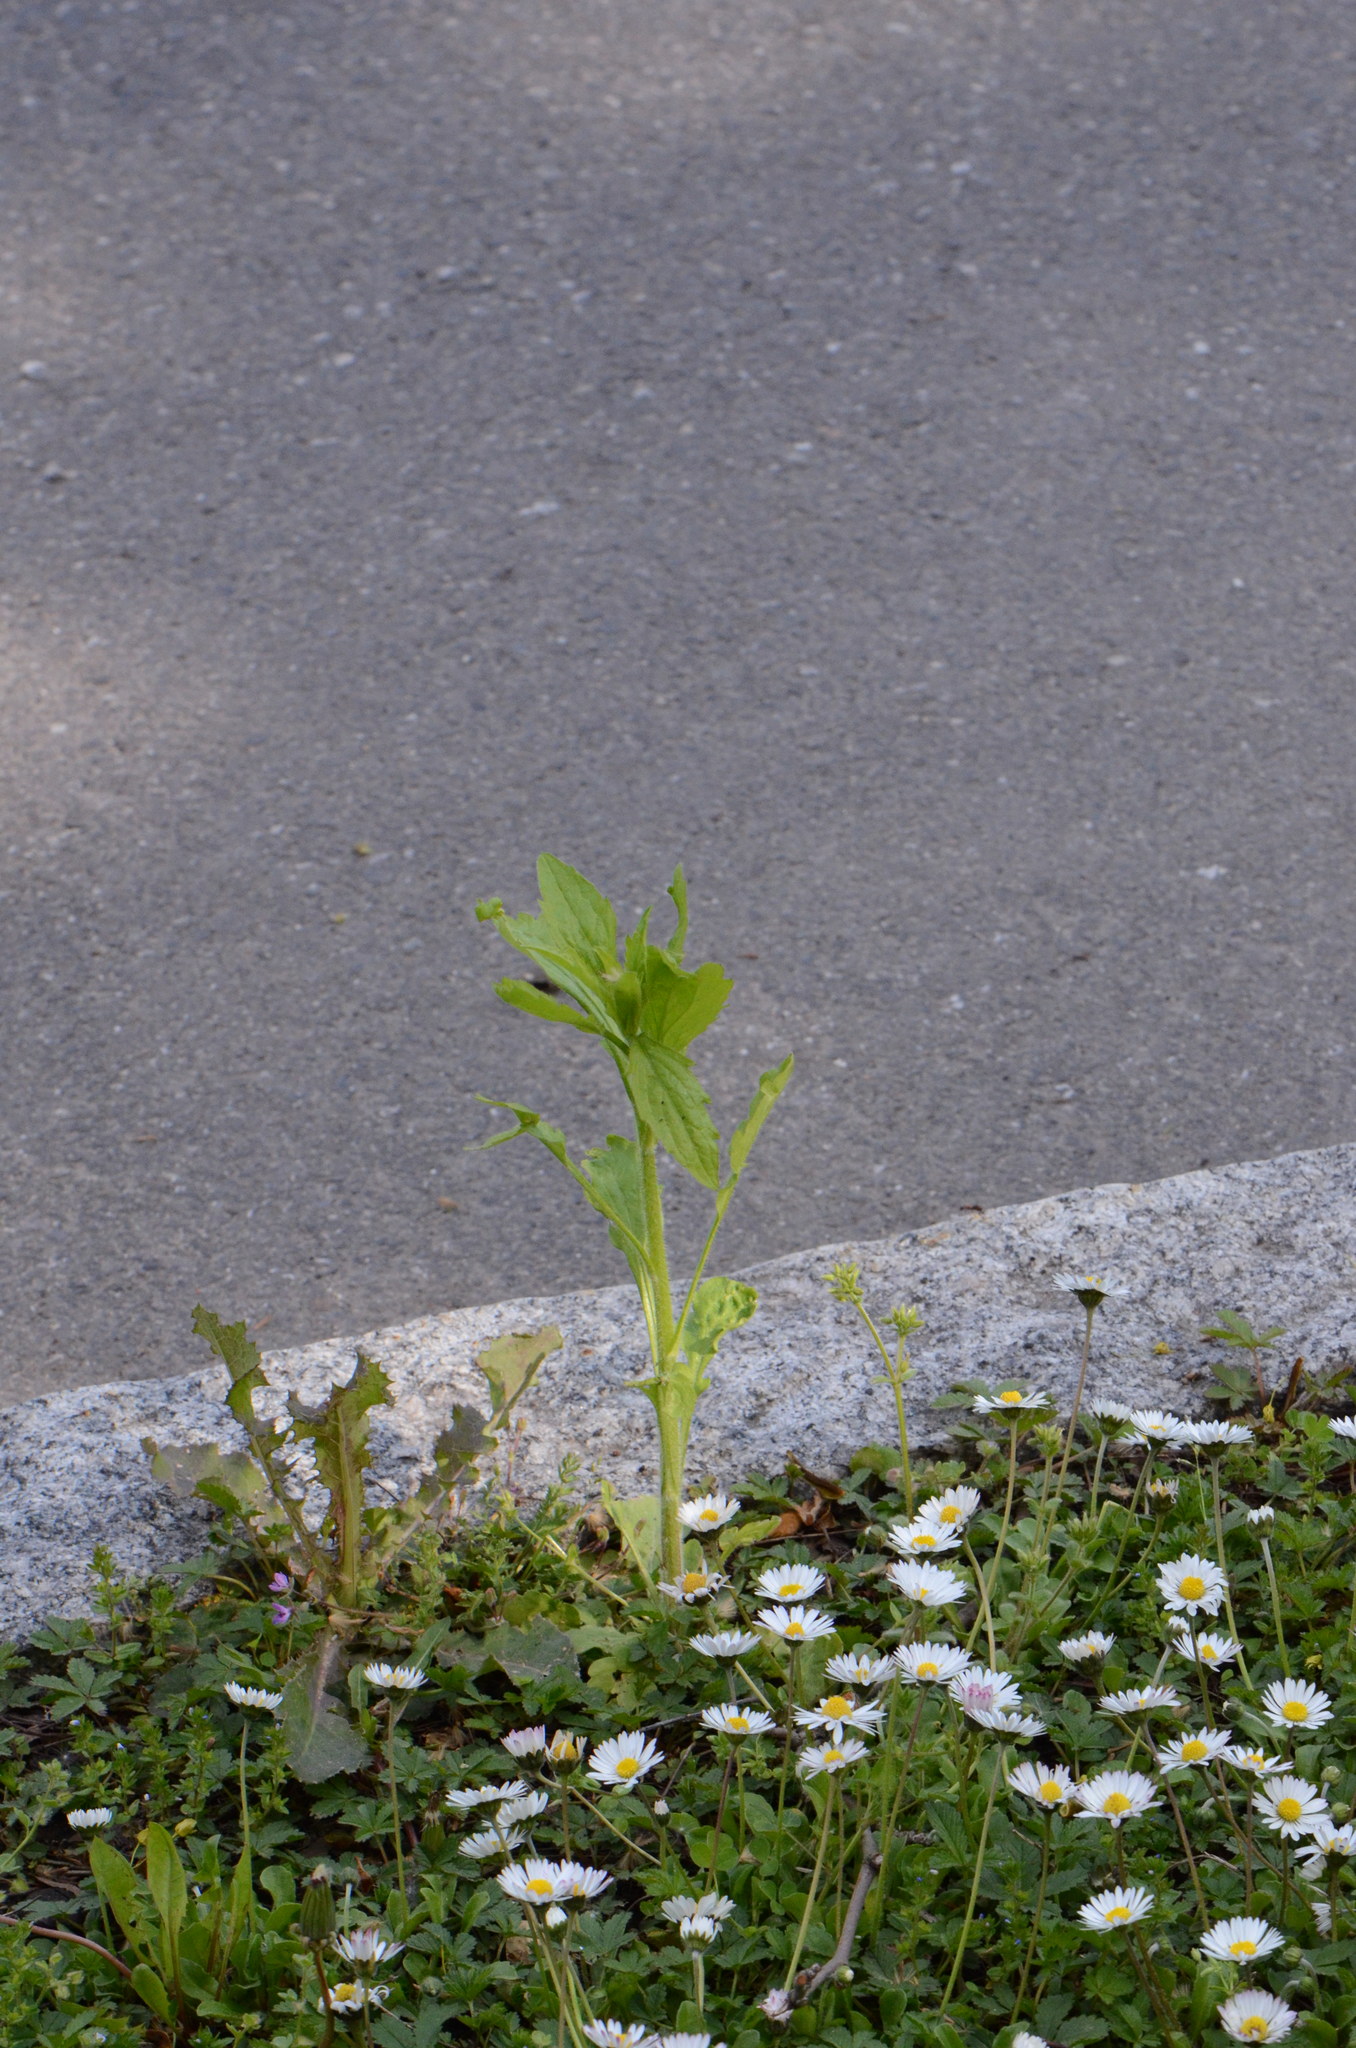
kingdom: Plantae
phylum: Tracheophyta
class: Magnoliopsida
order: Asterales
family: Asteraceae
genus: Erigeron
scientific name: Erigeron annuus
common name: Tall fleabane
